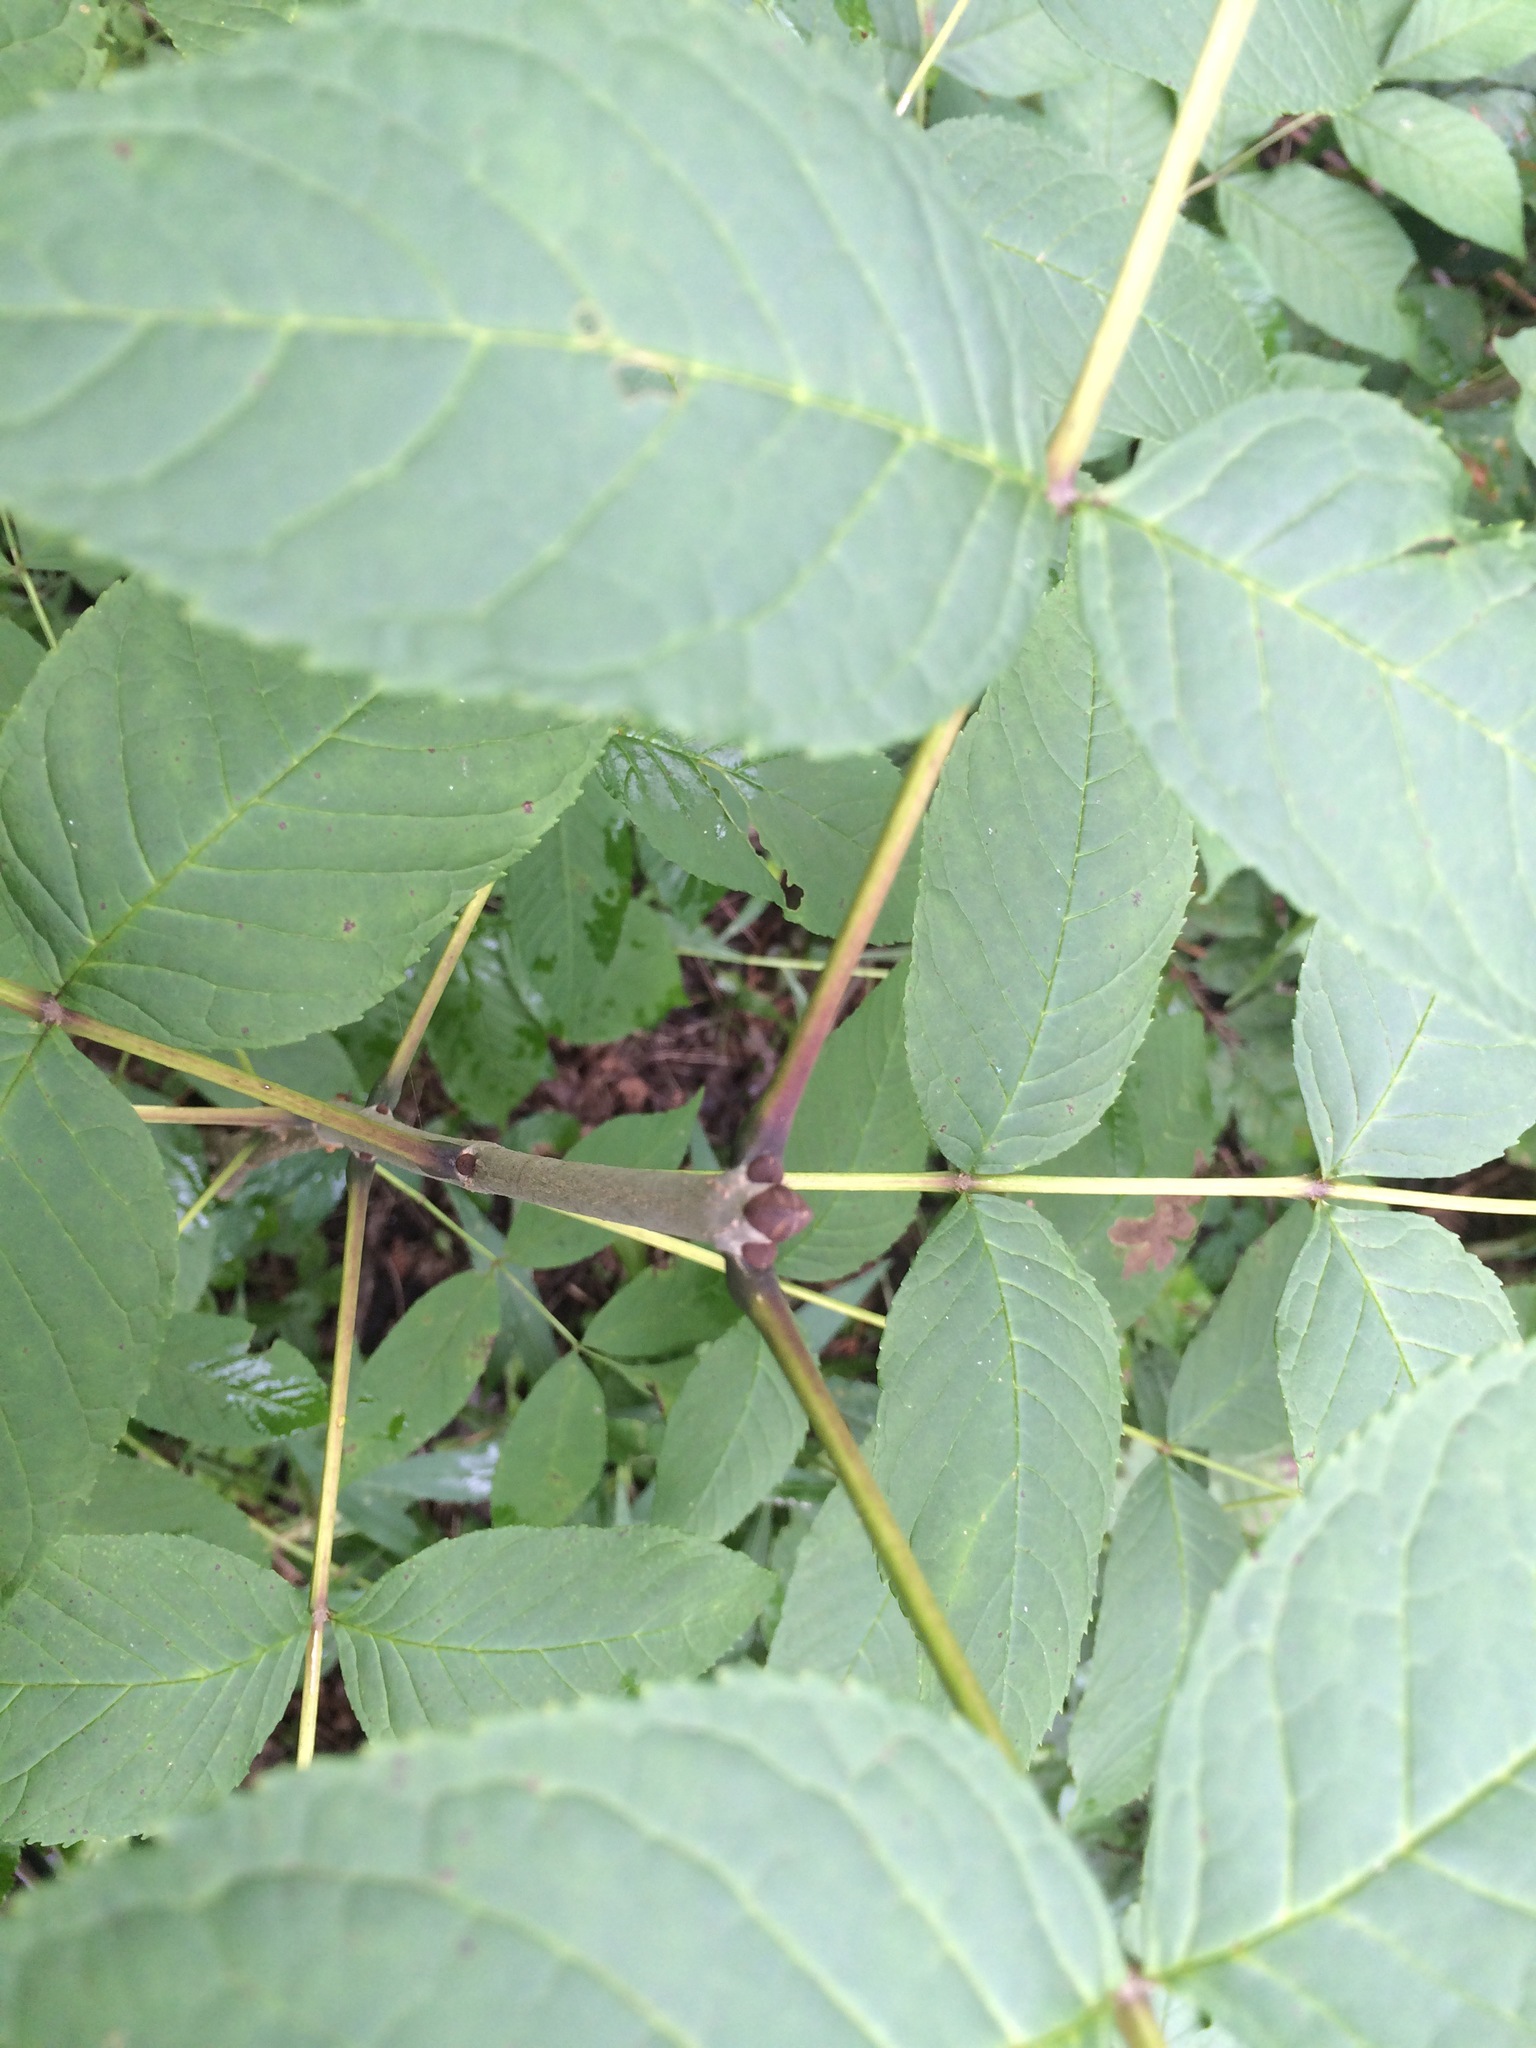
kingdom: Plantae
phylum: Tracheophyta
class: Magnoliopsida
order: Lamiales
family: Oleaceae
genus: Fraxinus
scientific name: Fraxinus nigra
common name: Black ash
